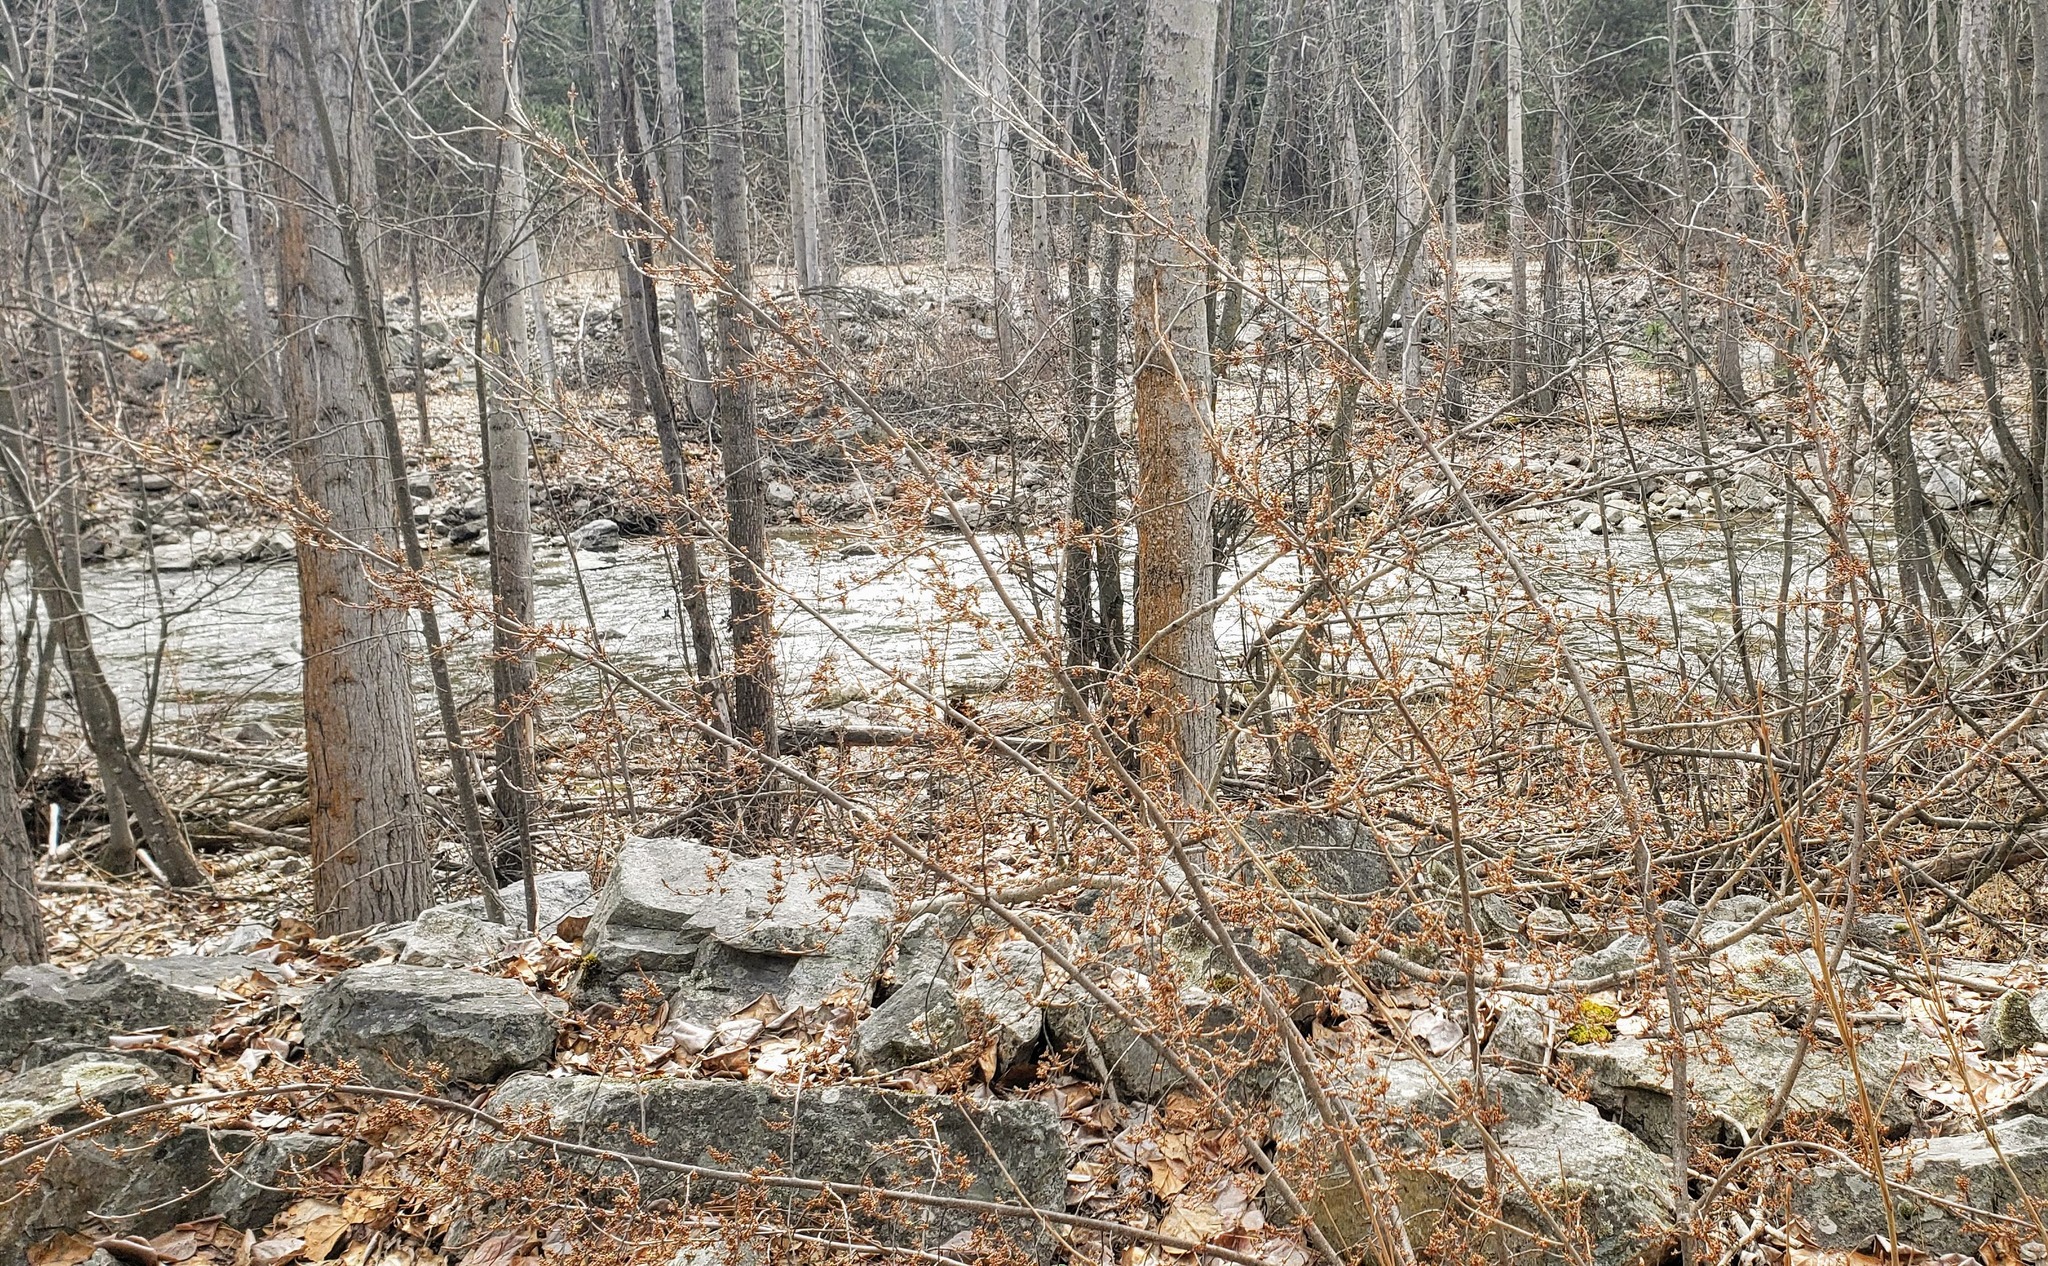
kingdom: Plantae
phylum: Tracheophyta
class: Magnoliopsida
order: Rosales
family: Elaeagnaceae
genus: Shepherdia
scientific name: Shepherdia canadensis
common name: Soapberry
